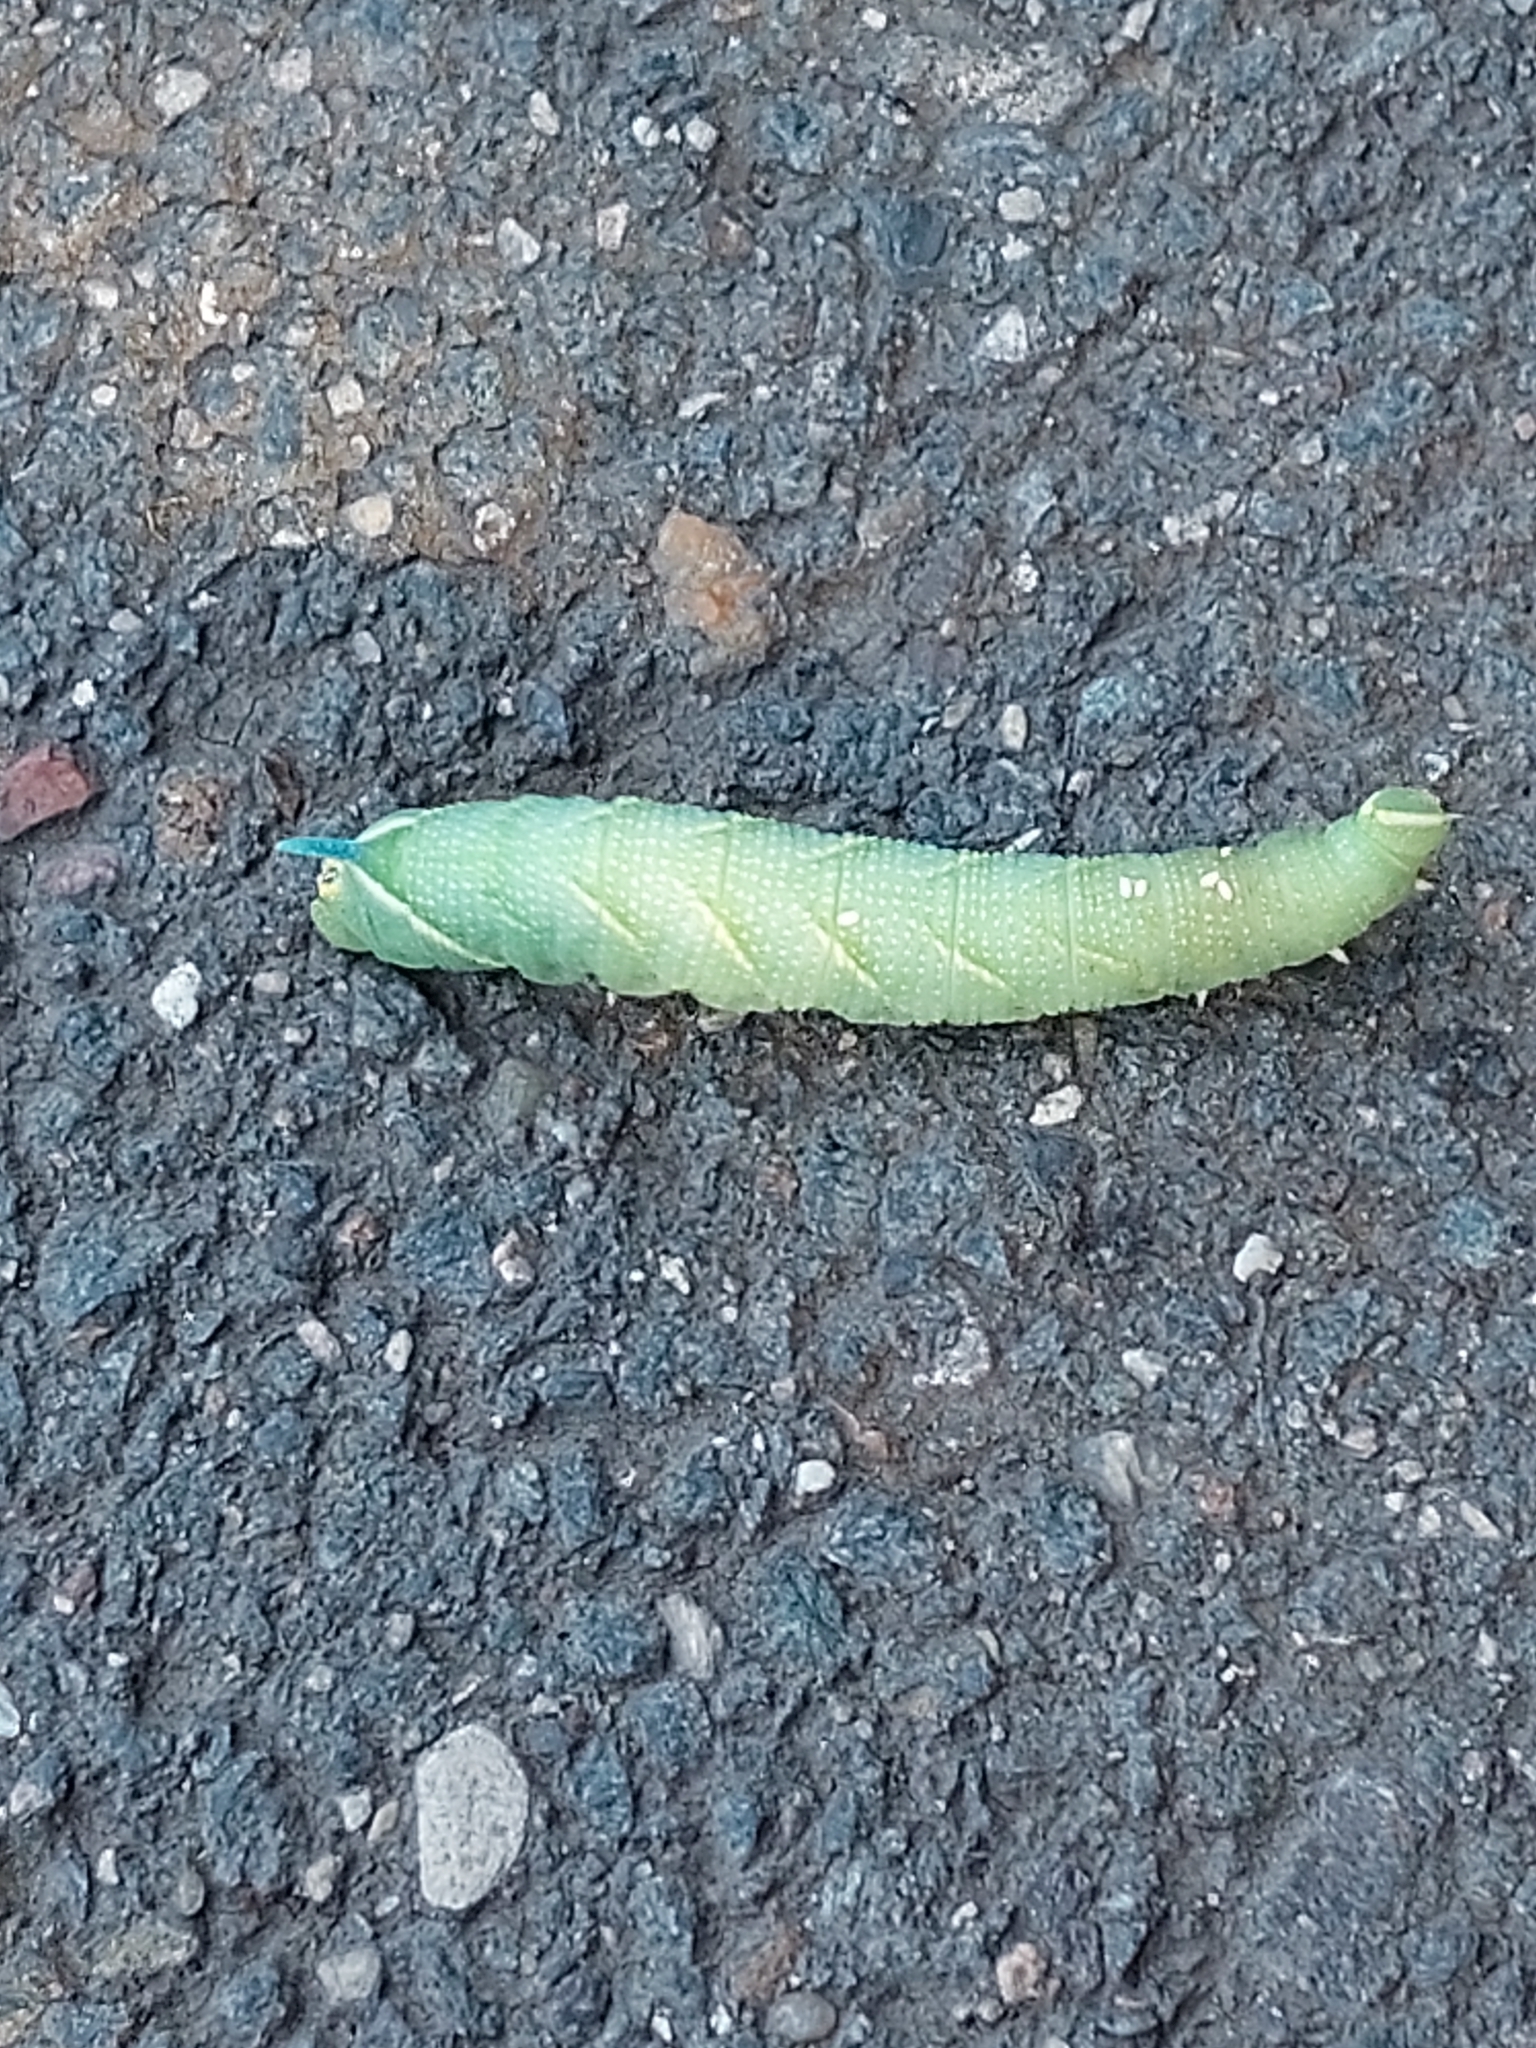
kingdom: Animalia
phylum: Arthropoda
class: Insecta
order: Lepidoptera
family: Sphingidae
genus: Mimas
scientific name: Mimas tiliae
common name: Lime hawk-moth
